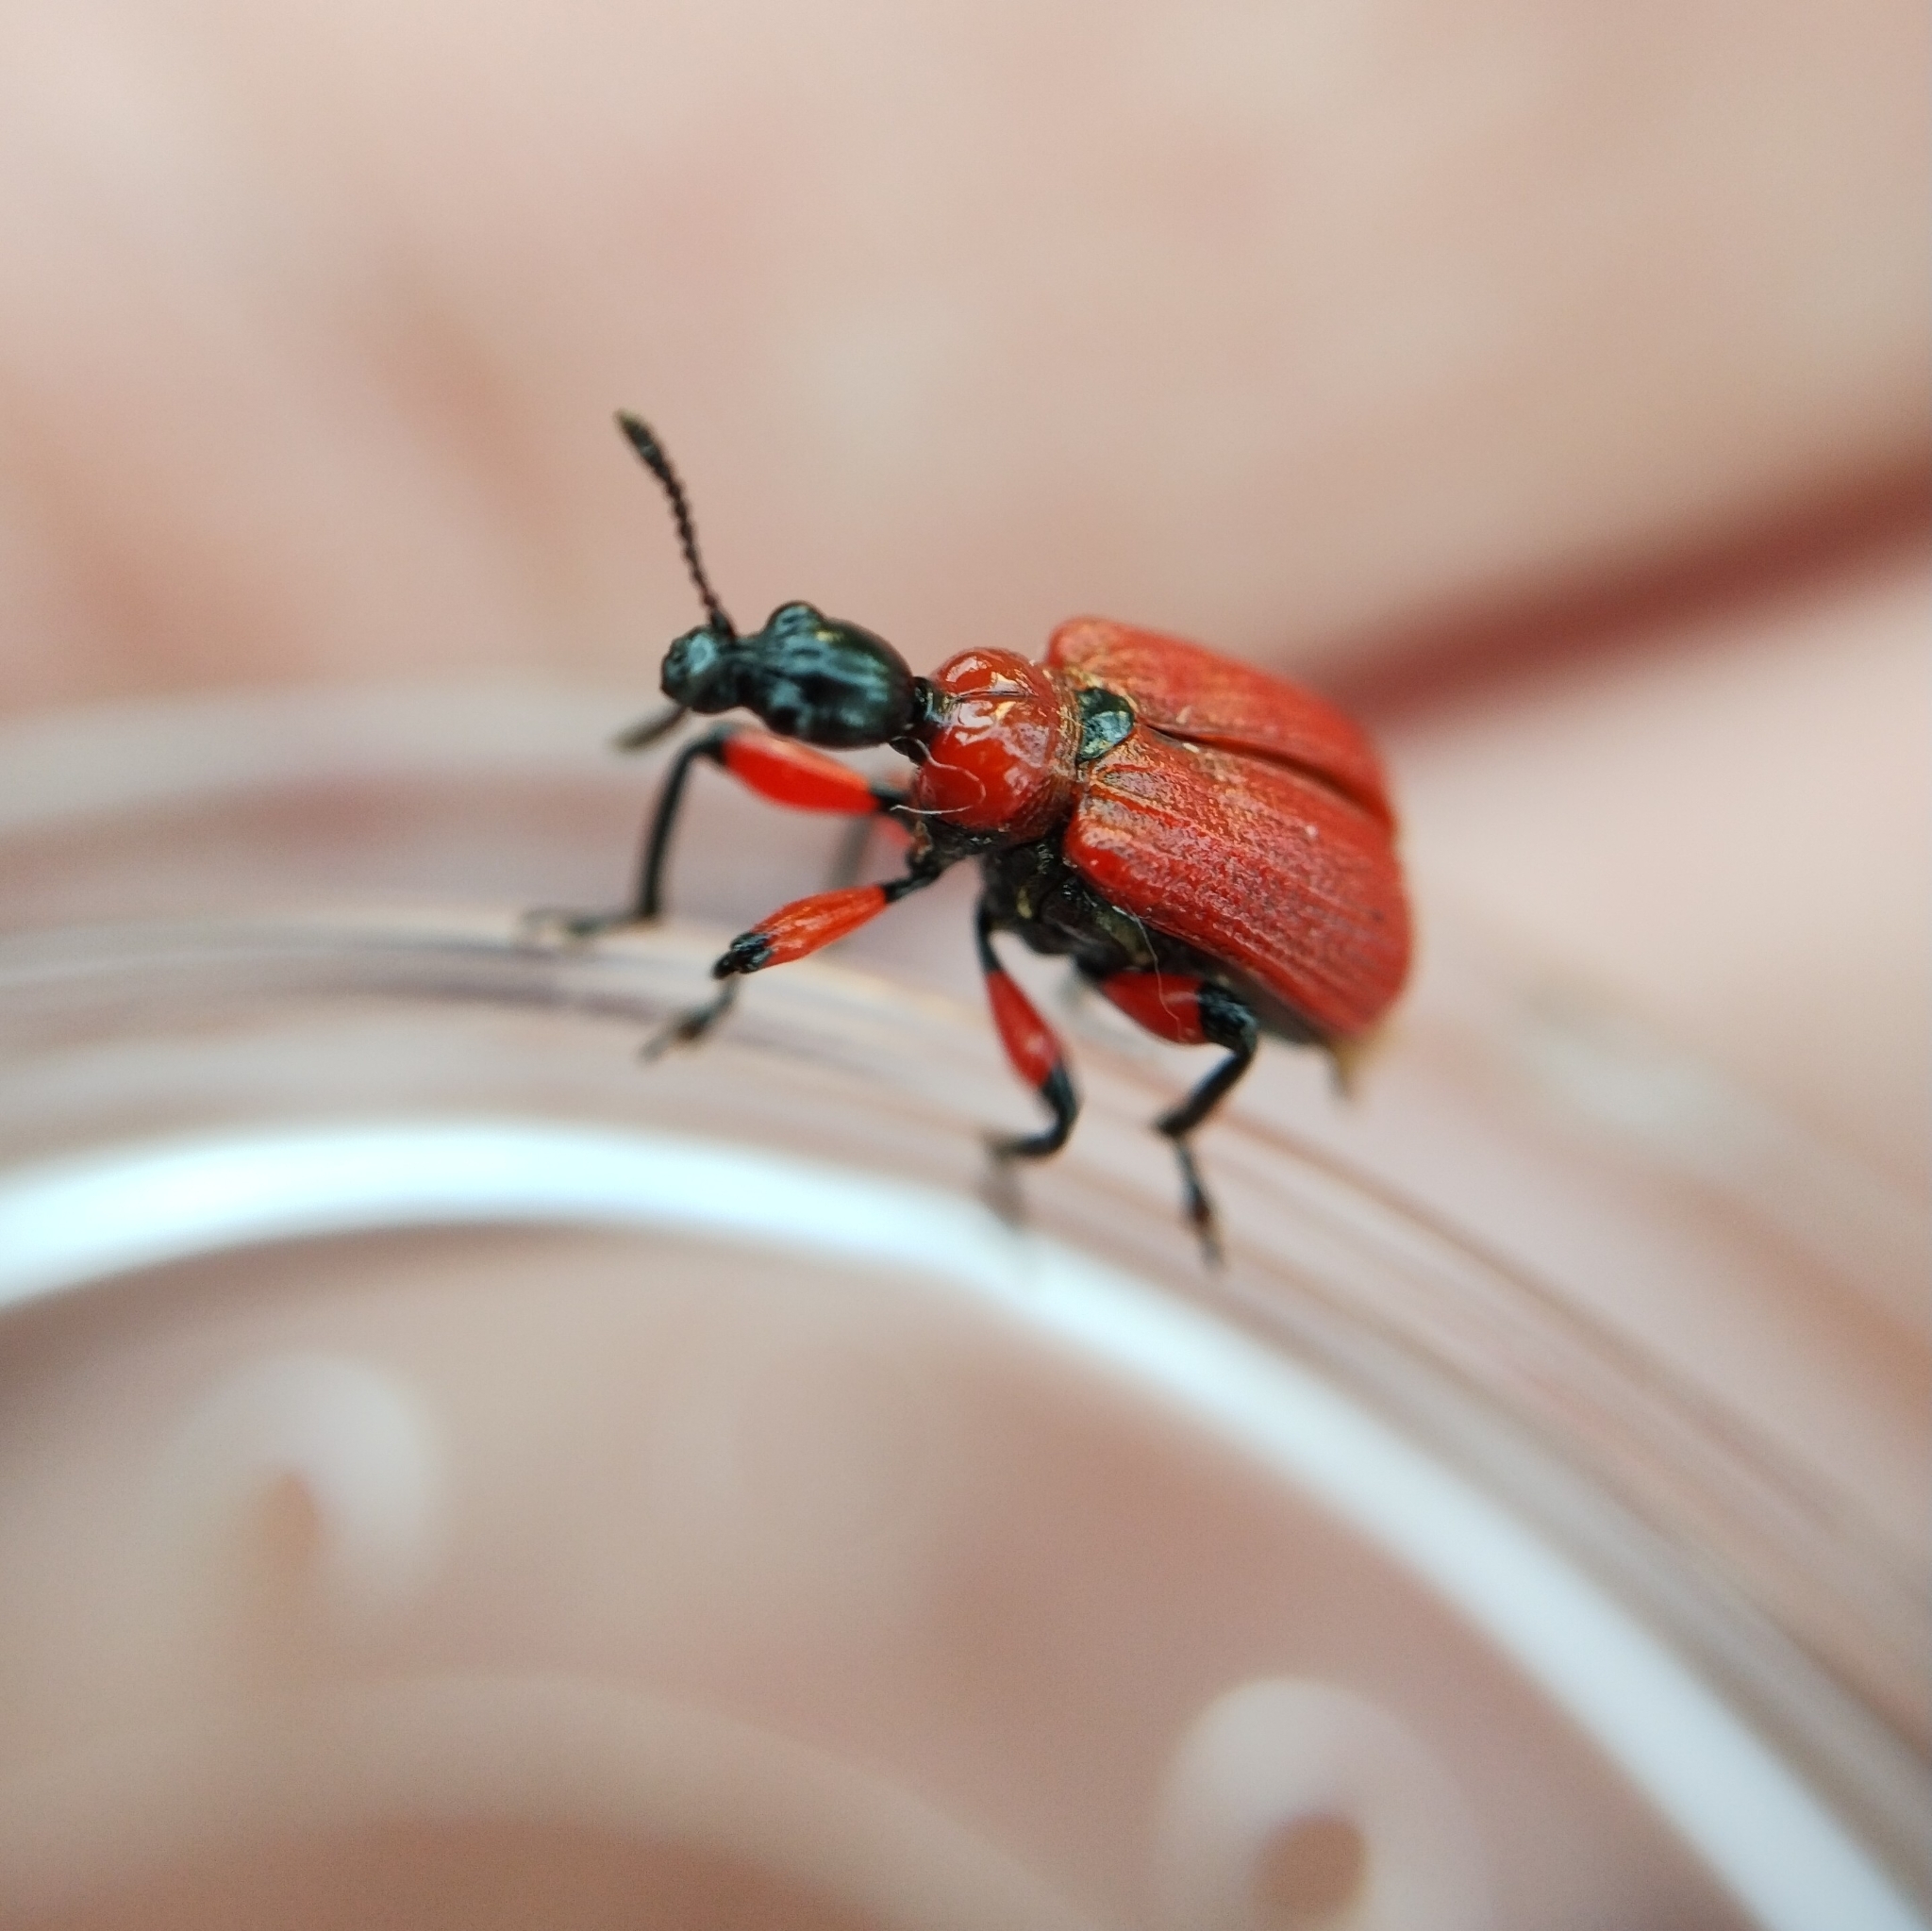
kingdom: Animalia
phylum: Arthropoda
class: Insecta
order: Coleoptera
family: Attelabidae
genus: Apoderus
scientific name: Apoderus coryli
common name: Hazel leaf roller
